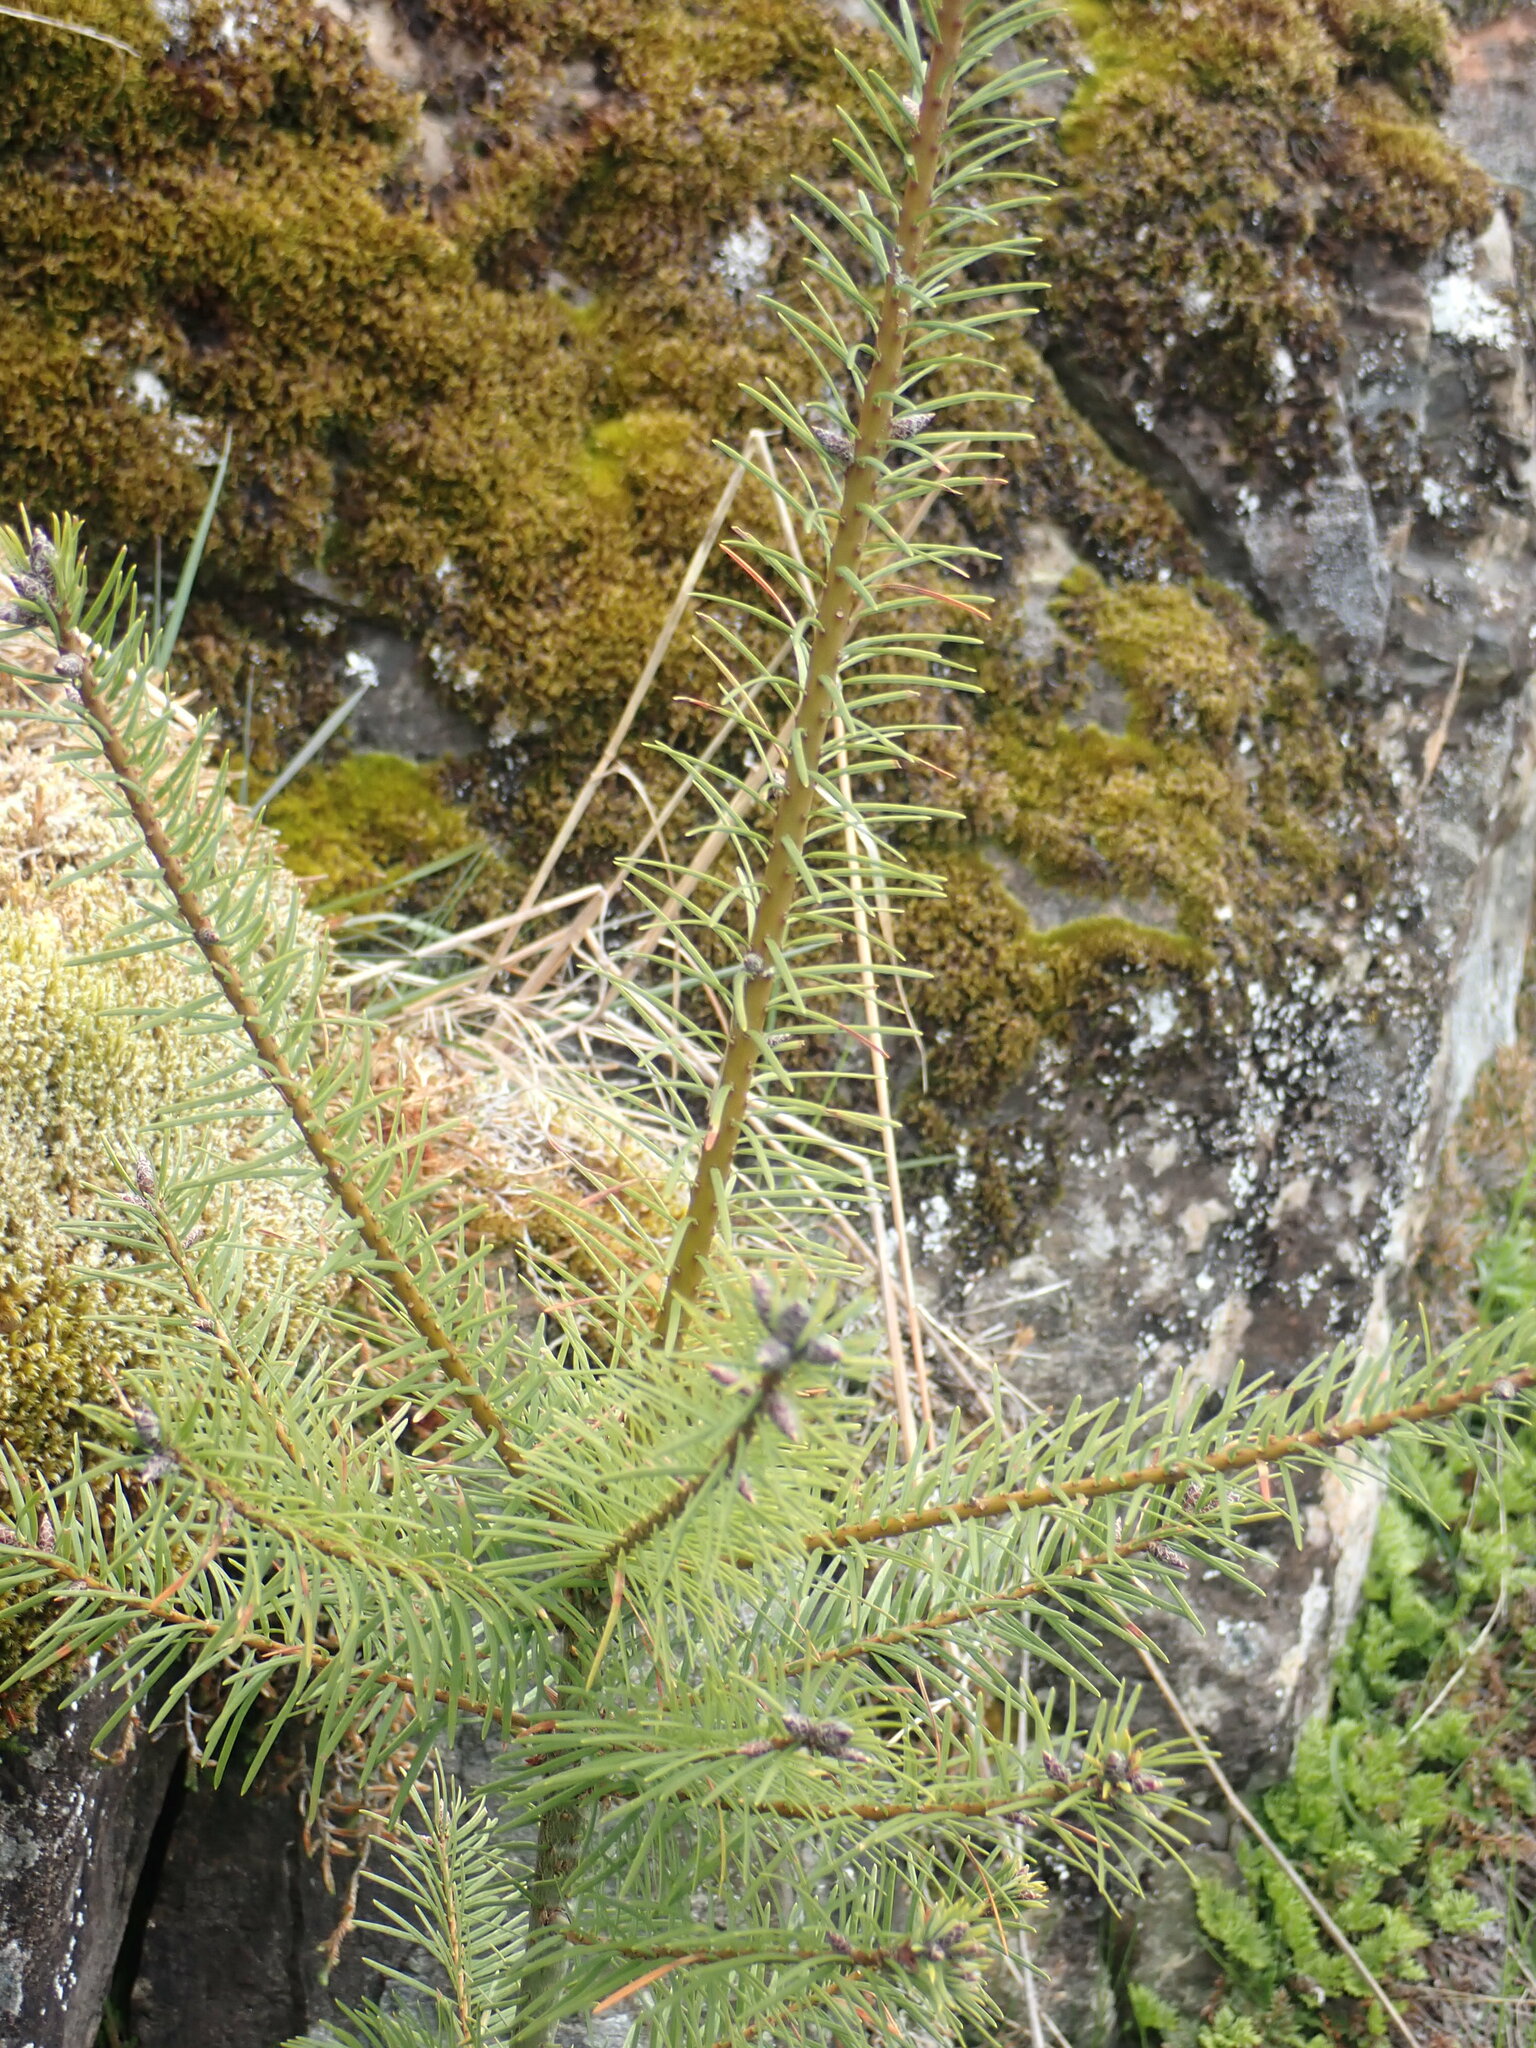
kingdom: Plantae
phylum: Tracheophyta
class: Pinopsida
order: Pinales
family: Pinaceae
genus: Pseudotsuga
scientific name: Pseudotsuga menziesii
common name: Douglas fir
